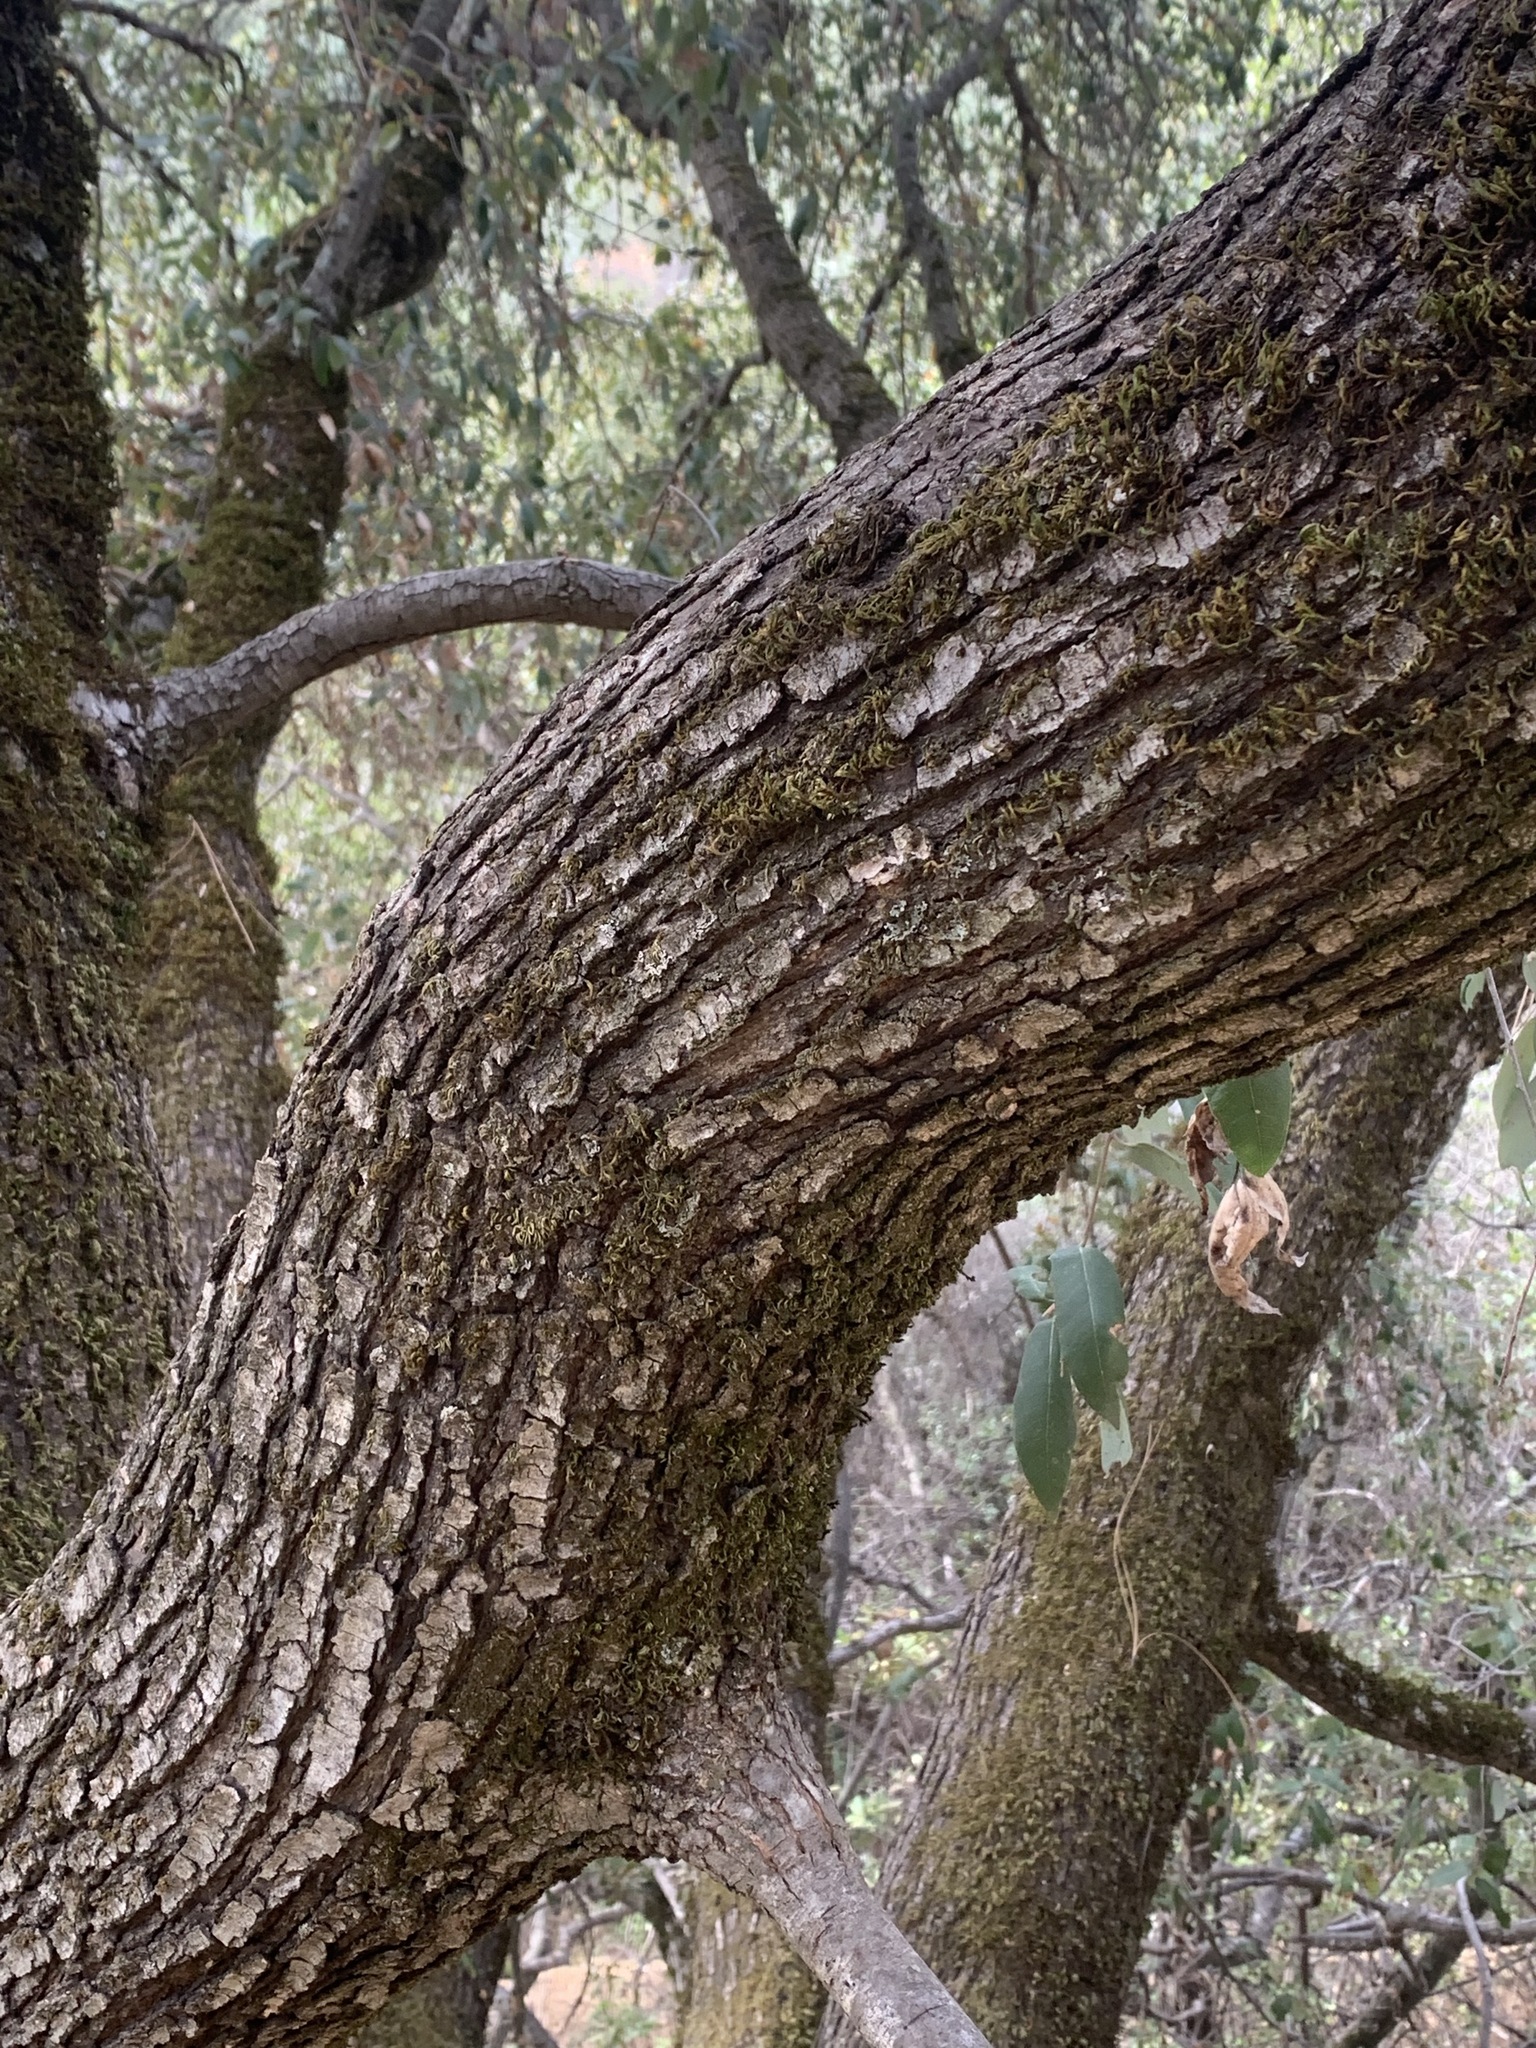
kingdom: Plantae
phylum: Tracheophyta
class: Magnoliopsida
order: Fagales
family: Fagaceae
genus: Quercus
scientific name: Quercus chrysolepis
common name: Canyon live oak
